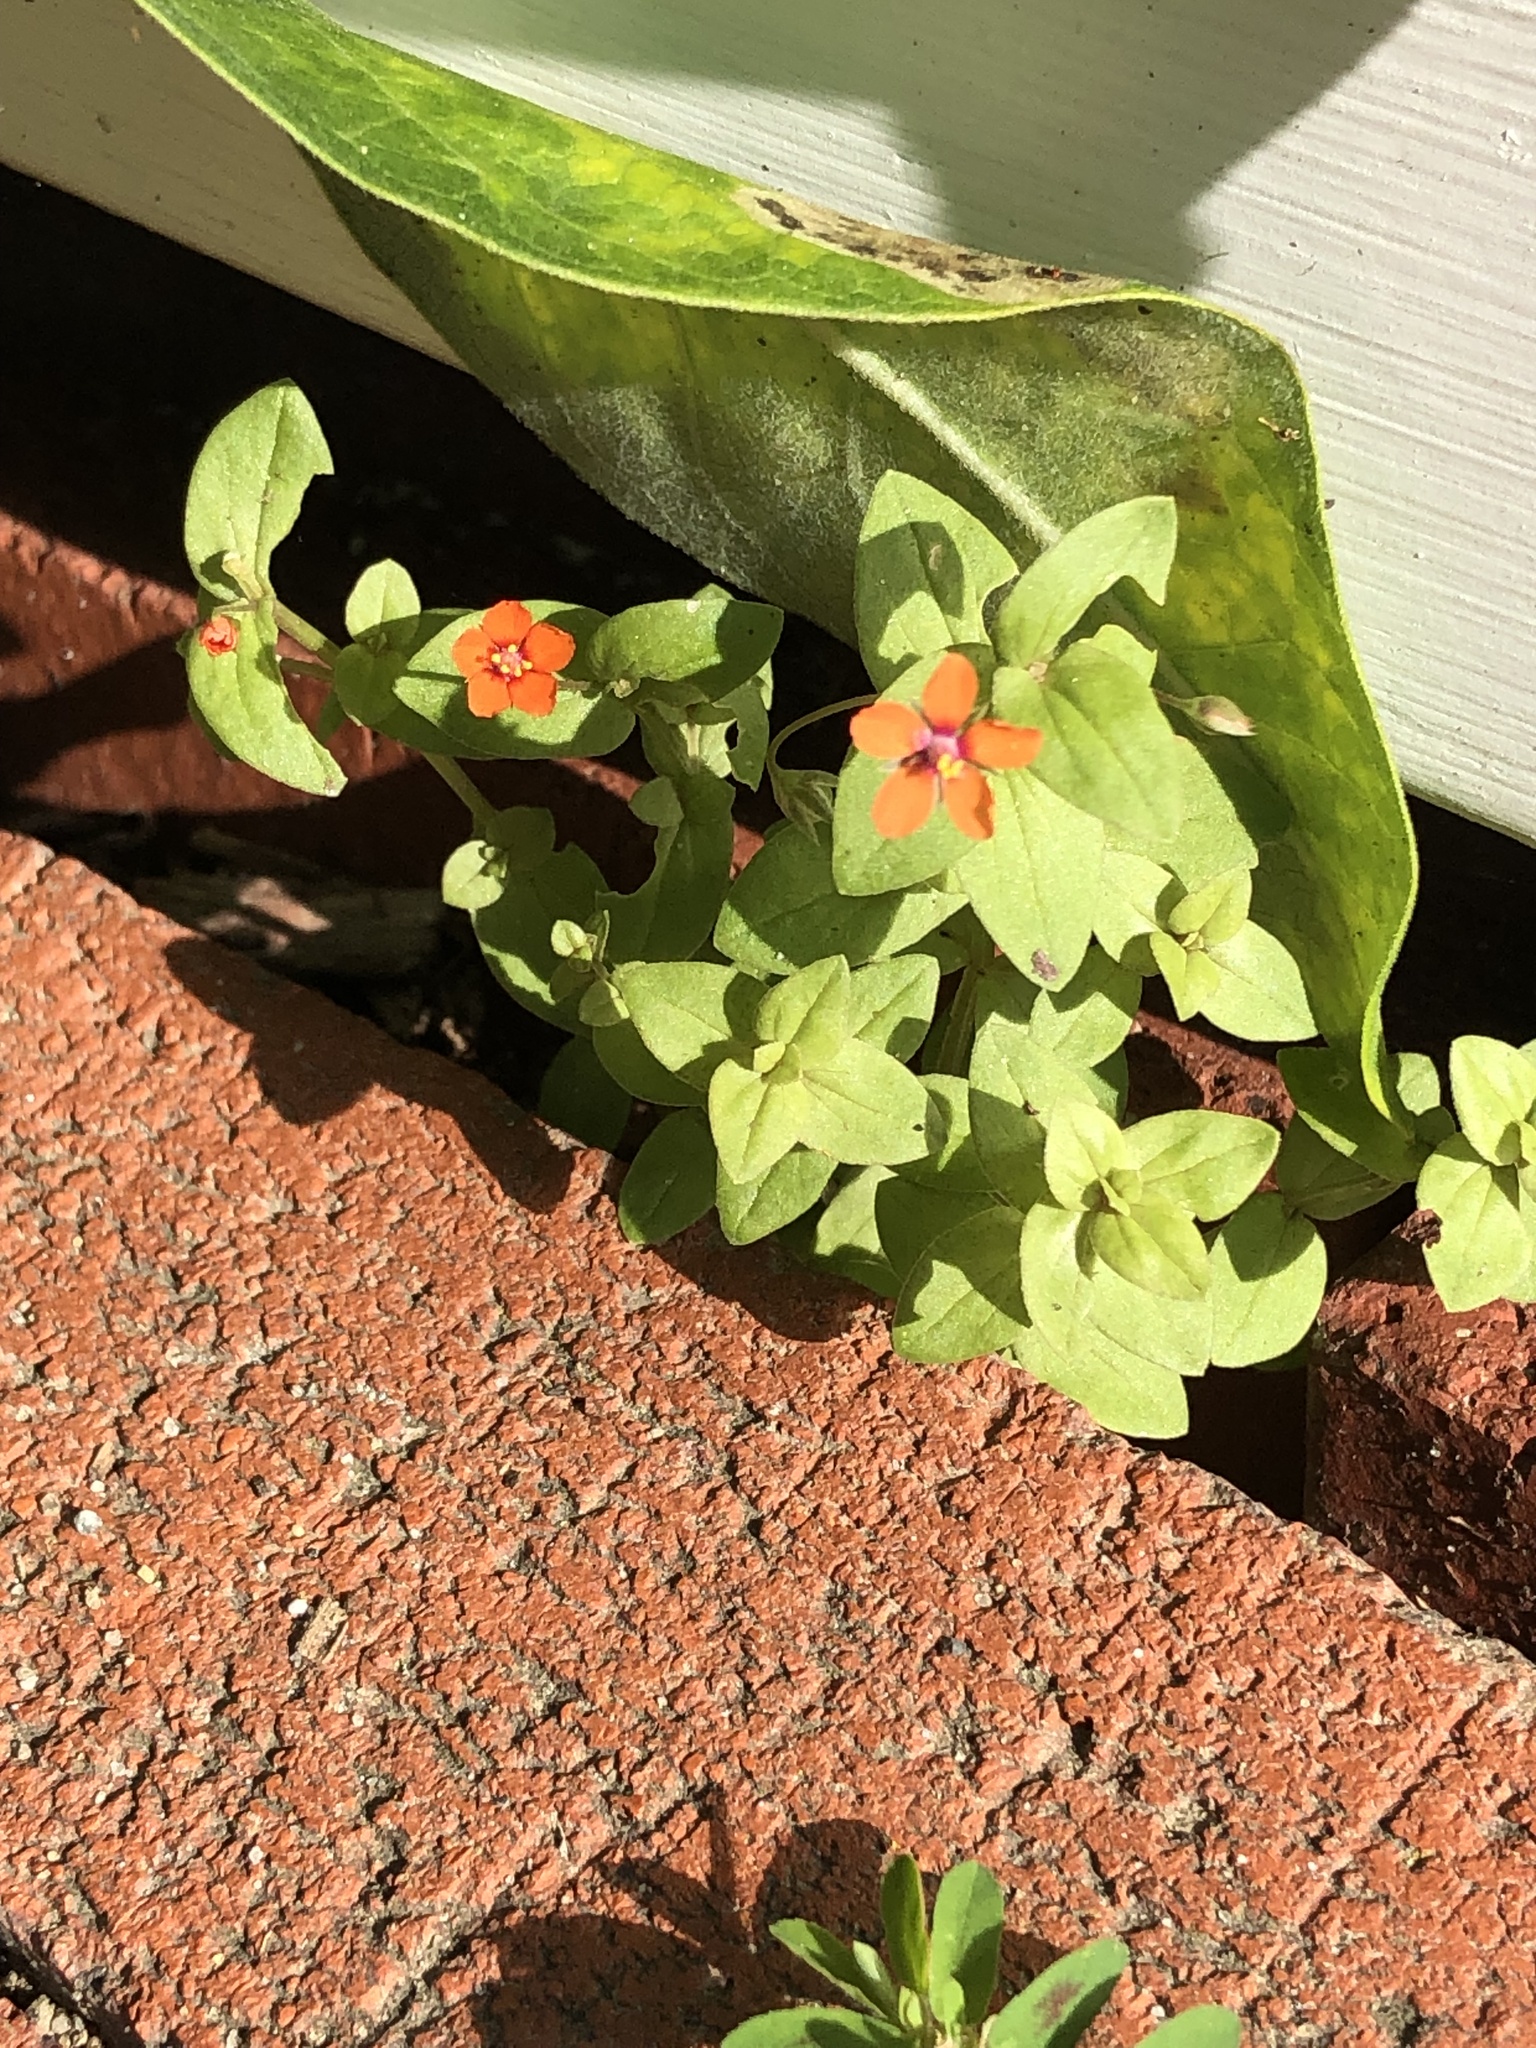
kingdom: Plantae
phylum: Tracheophyta
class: Magnoliopsida
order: Ericales
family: Primulaceae
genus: Lysimachia
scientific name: Lysimachia arvensis
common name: Scarlet pimpernel
